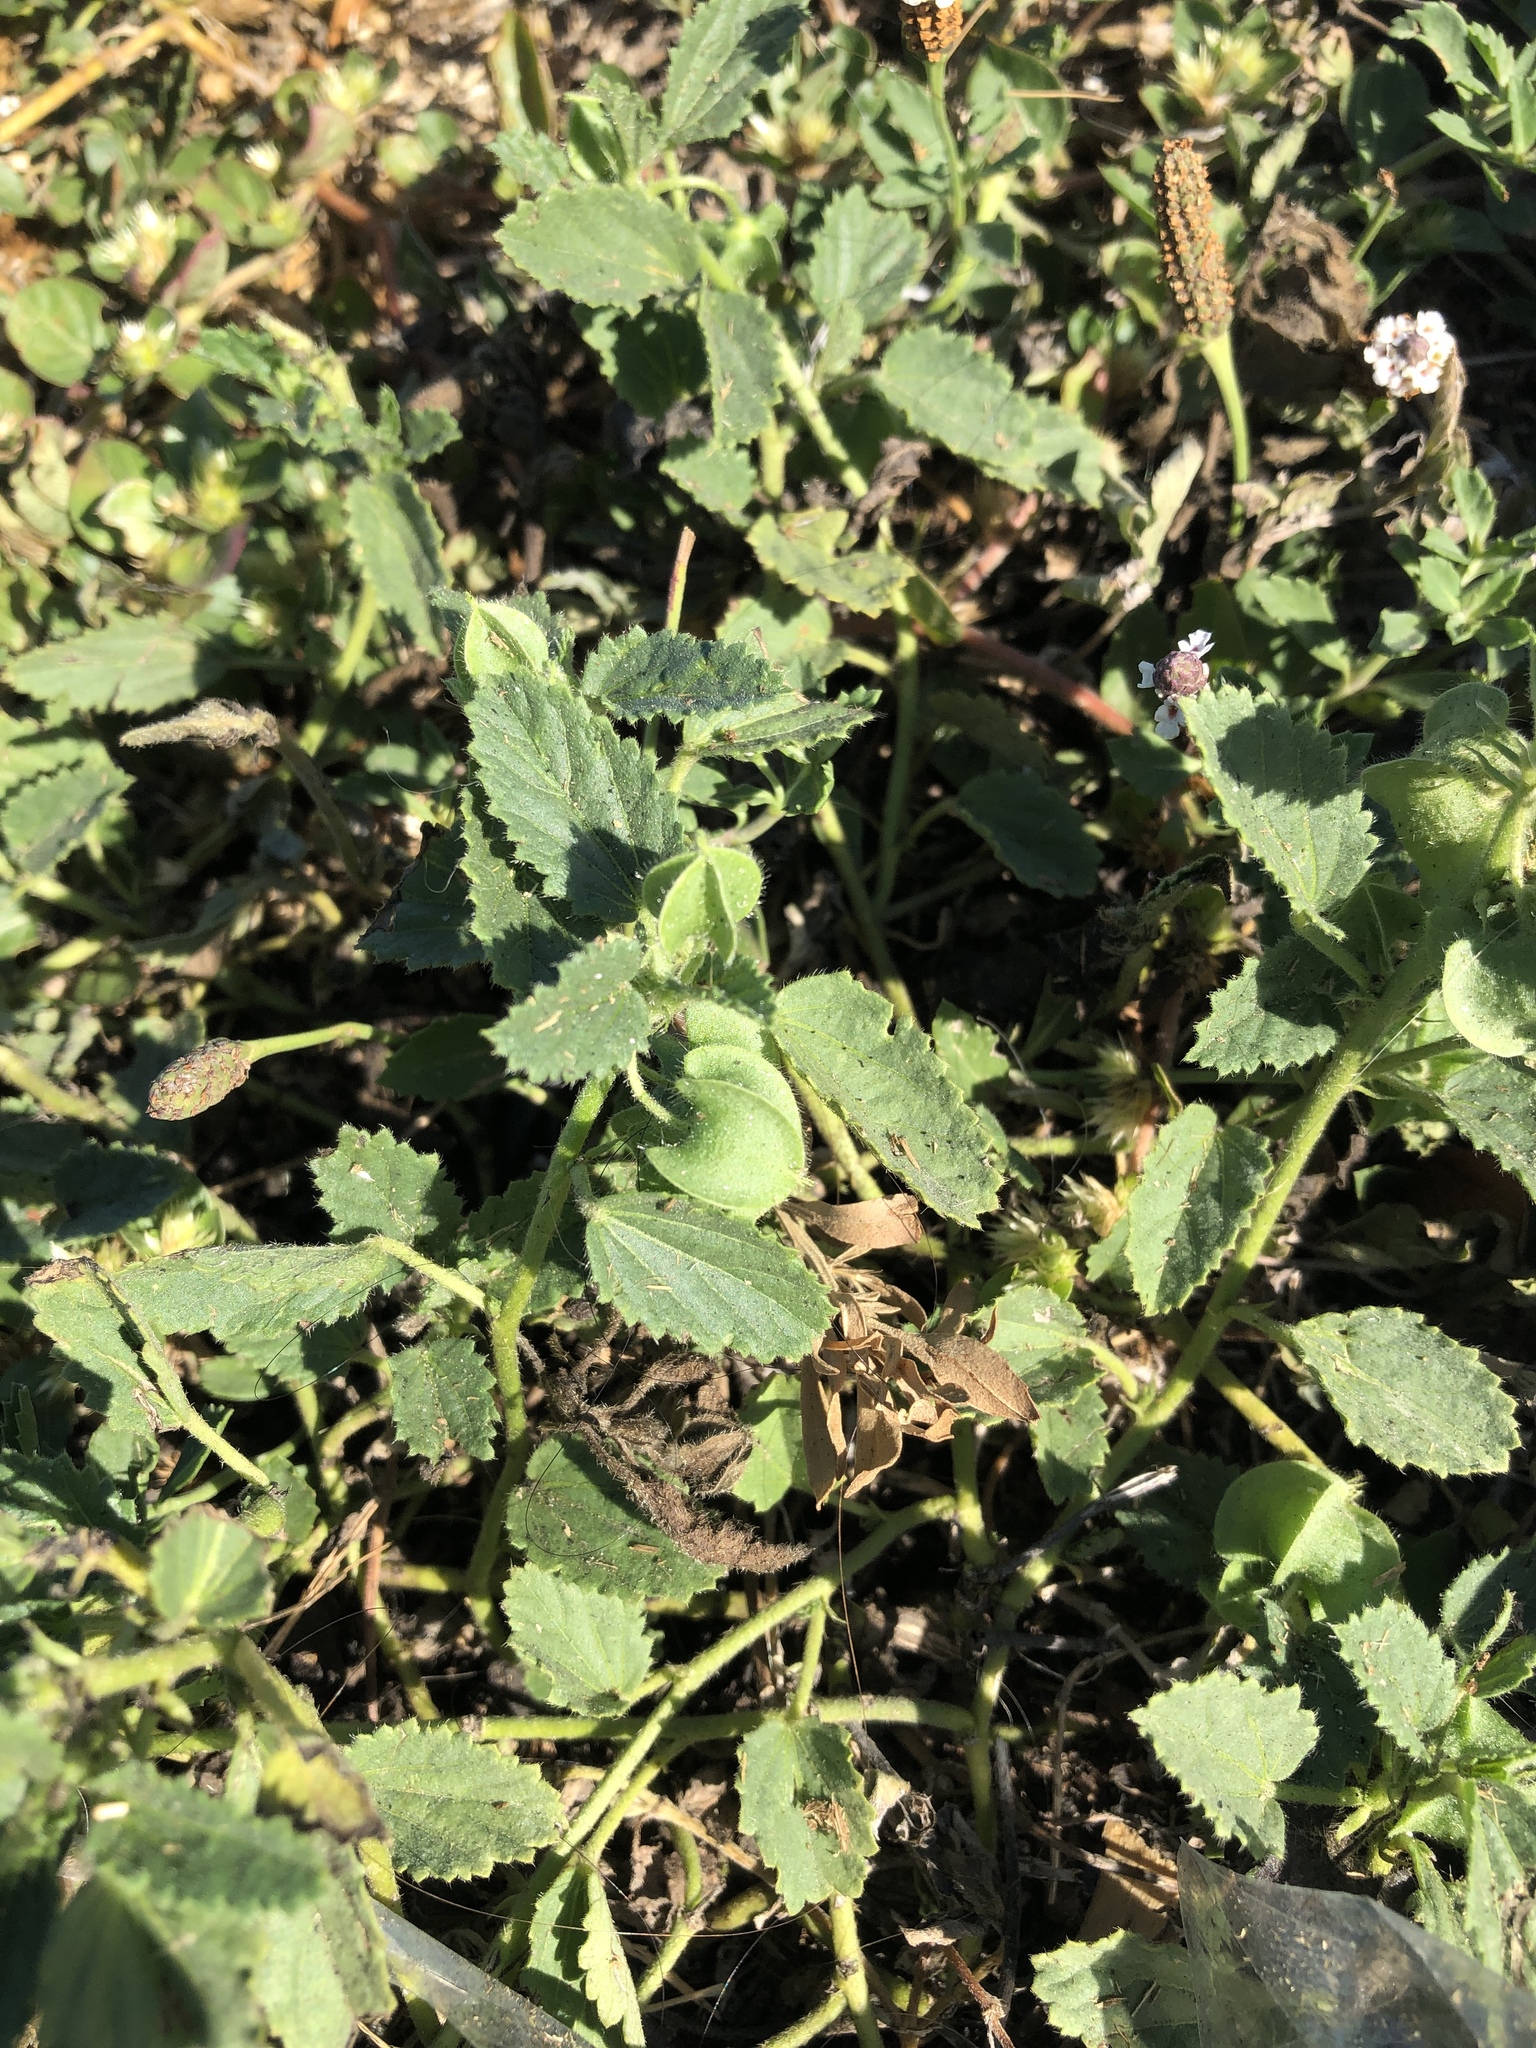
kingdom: Plantae
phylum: Tracheophyta
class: Magnoliopsida
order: Malvales
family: Malvaceae
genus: Rhynchosida
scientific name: Rhynchosida physocalyx
